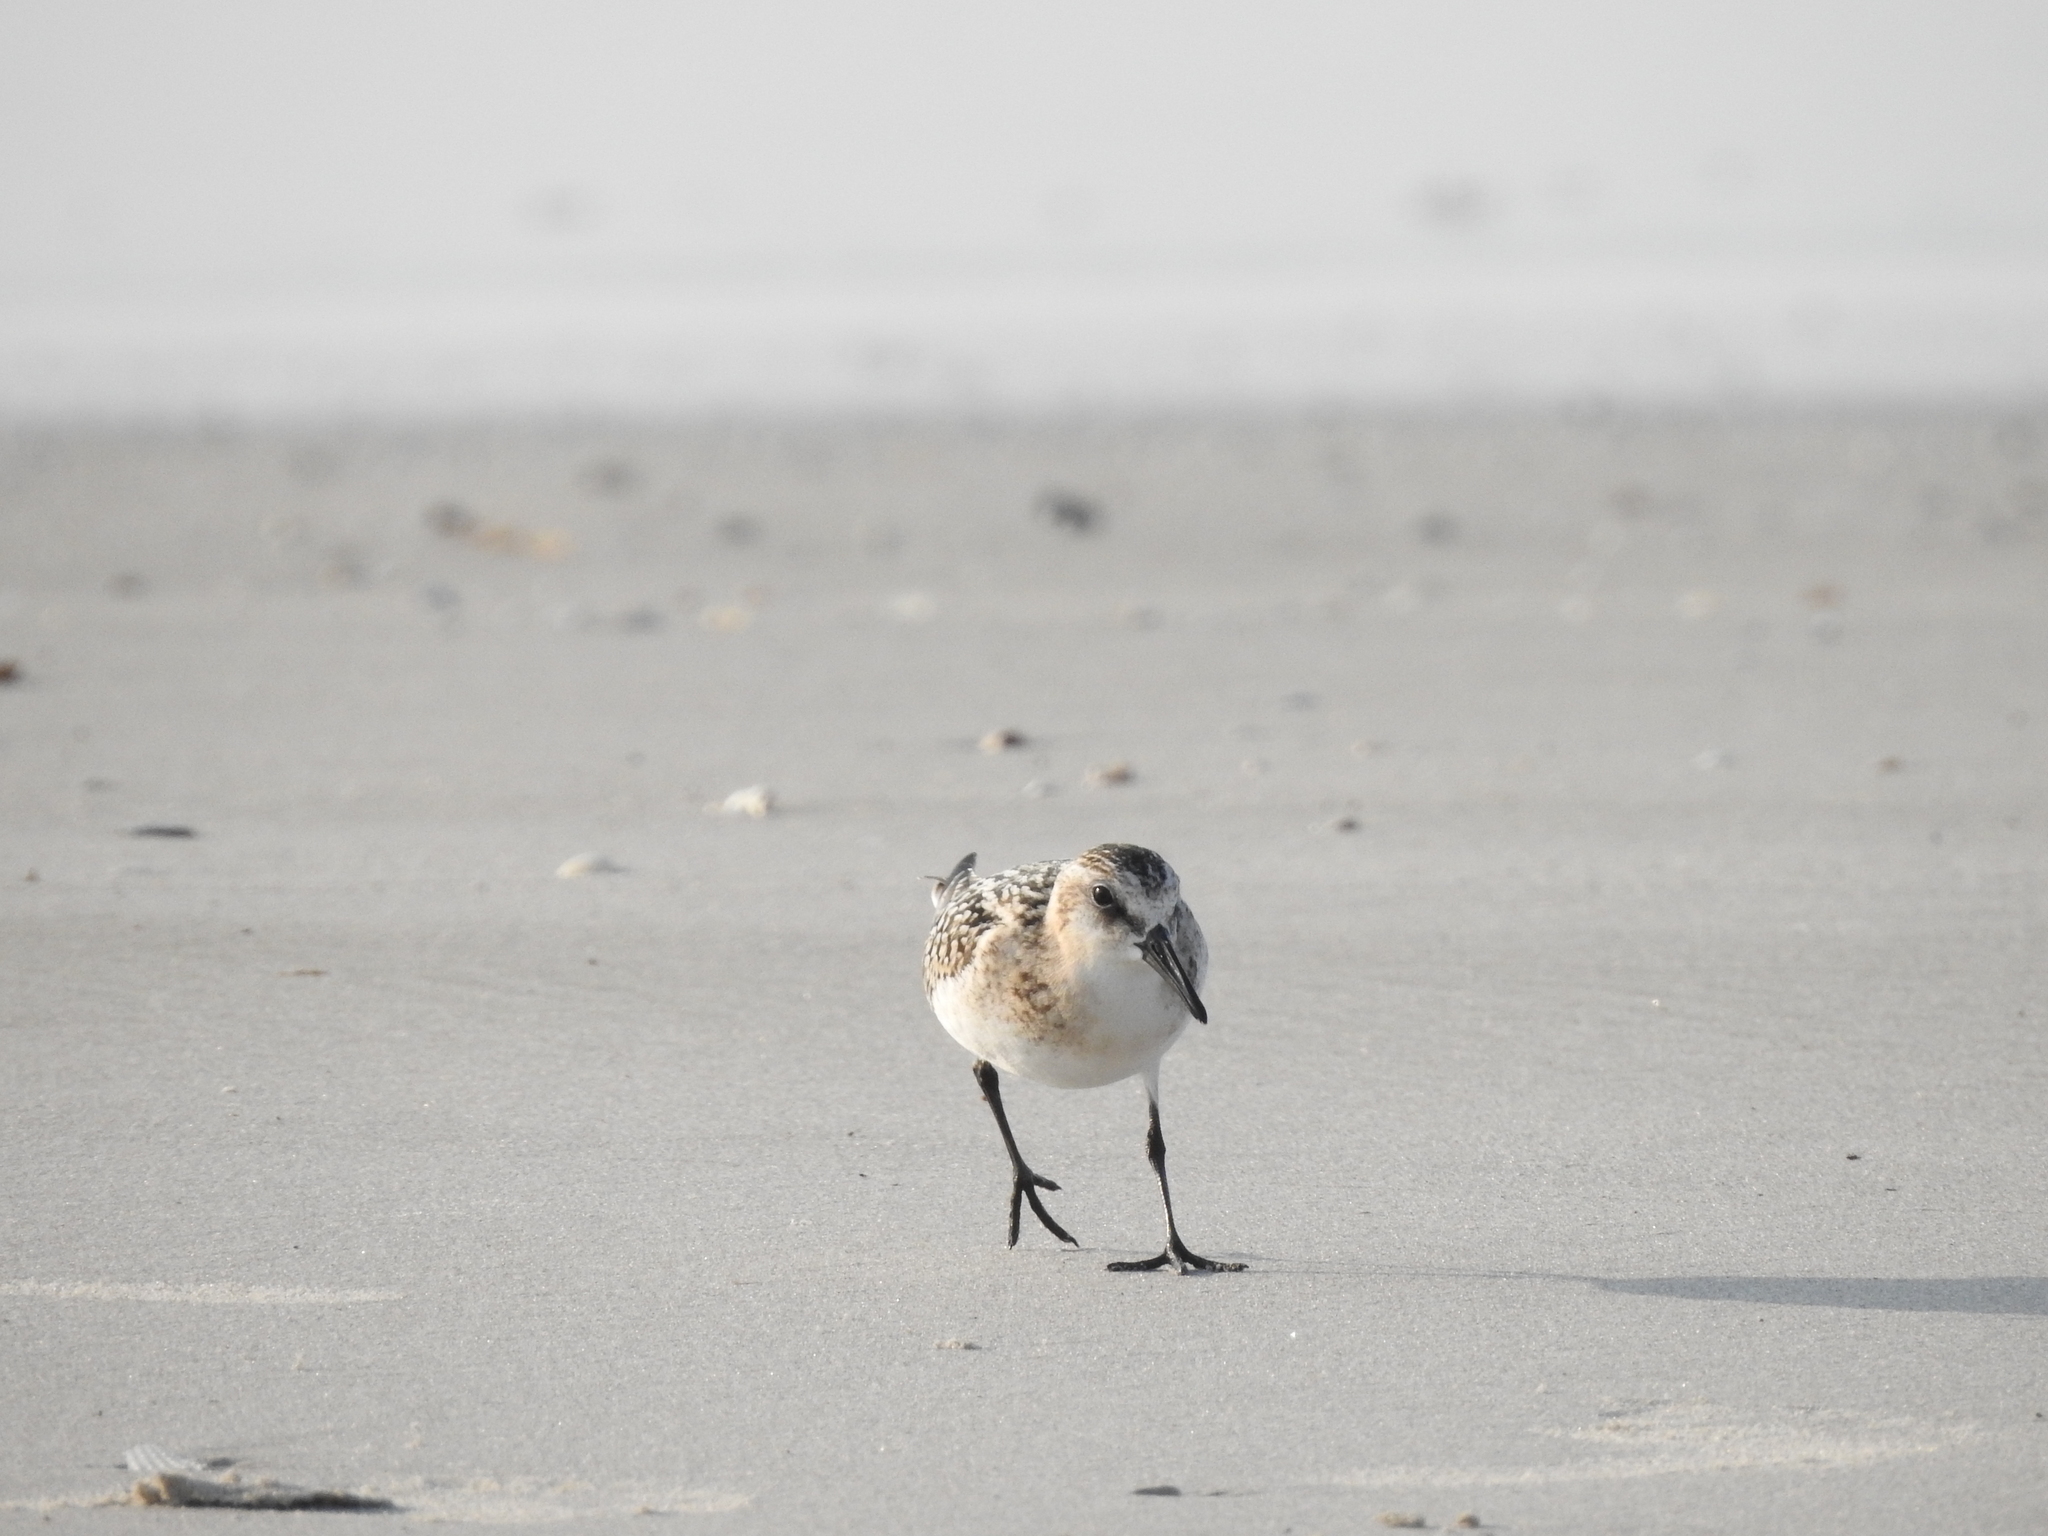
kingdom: Animalia
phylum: Chordata
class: Aves
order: Charadriiformes
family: Scolopacidae
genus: Calidris
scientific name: Calidris alba
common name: Sanderling
